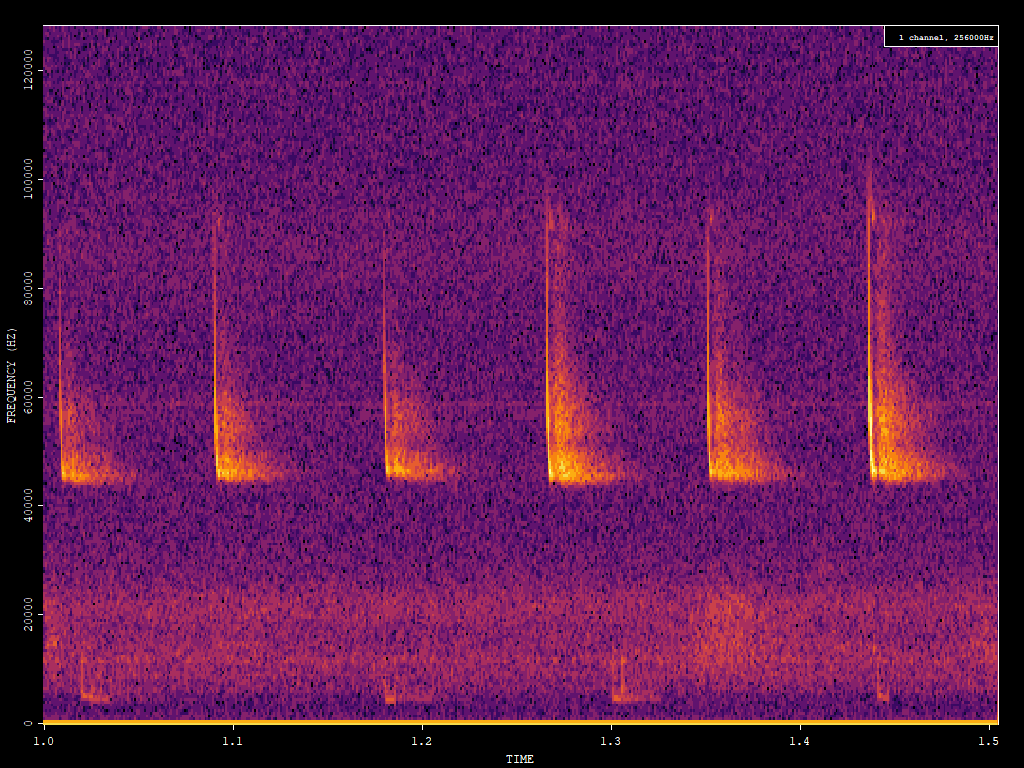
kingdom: Animalia
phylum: Chordata
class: Mammalia
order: Chiroptera
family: Vespertilionidae
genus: Pipistrellus
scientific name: Pipistrellus pipistrellus
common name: Common pipistrelle
